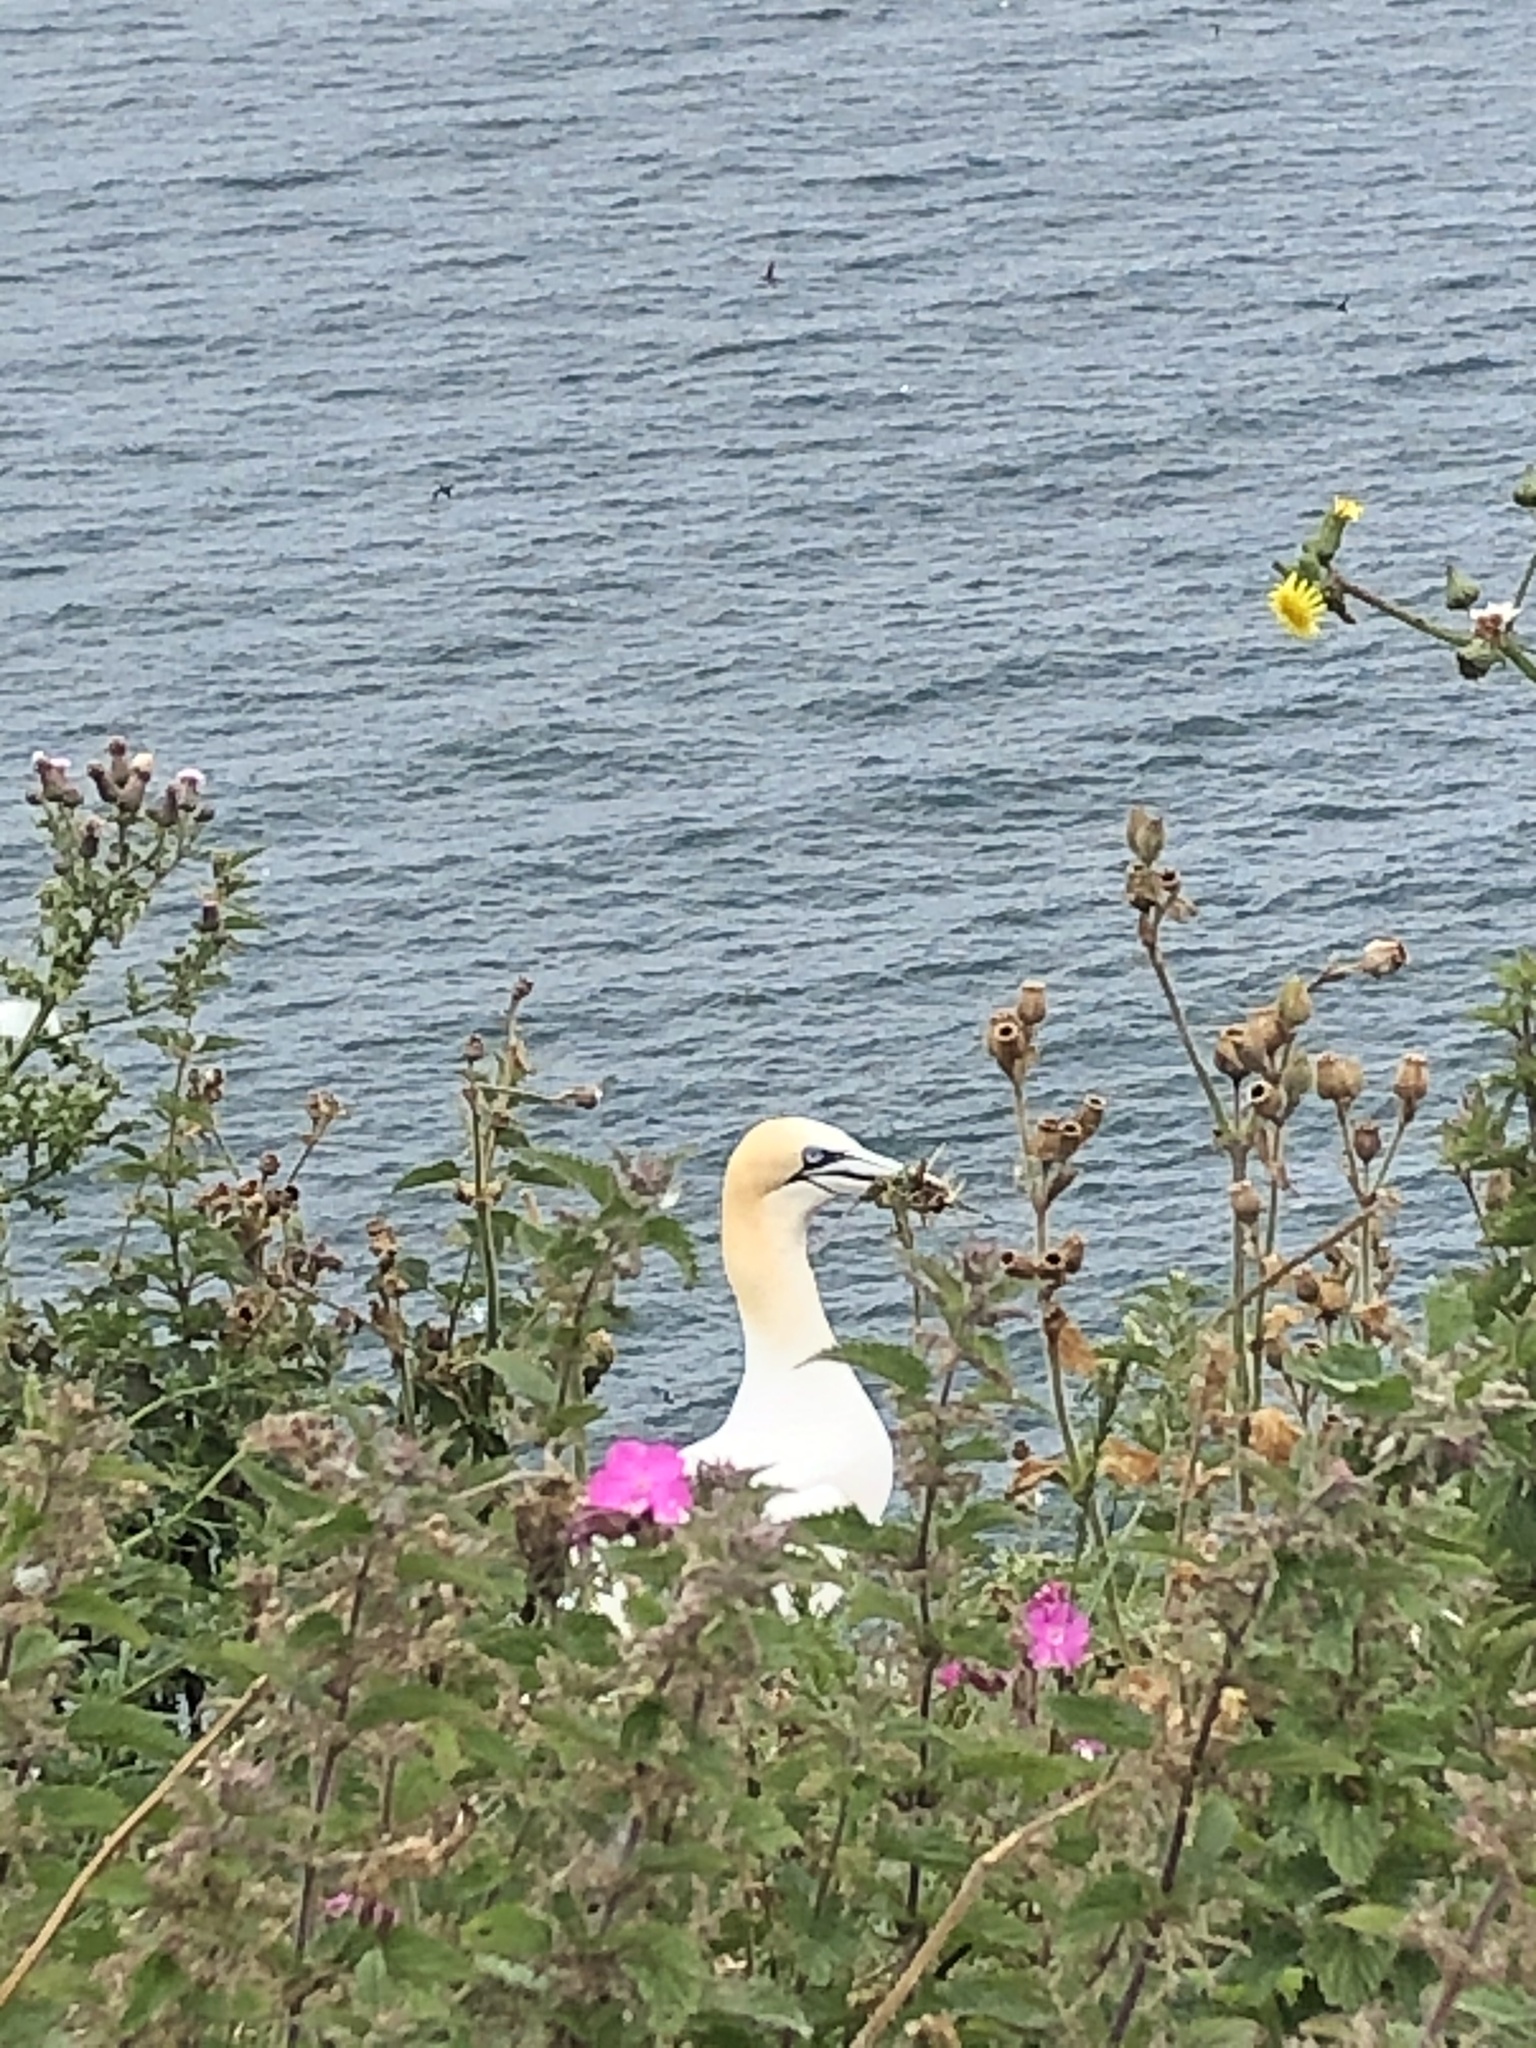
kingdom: Plantae
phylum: Tracheophyta
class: Magnoliopsida
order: Caryophyllales
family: Caryophyllaceae
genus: Silene
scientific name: Silene dioica
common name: Red campion
